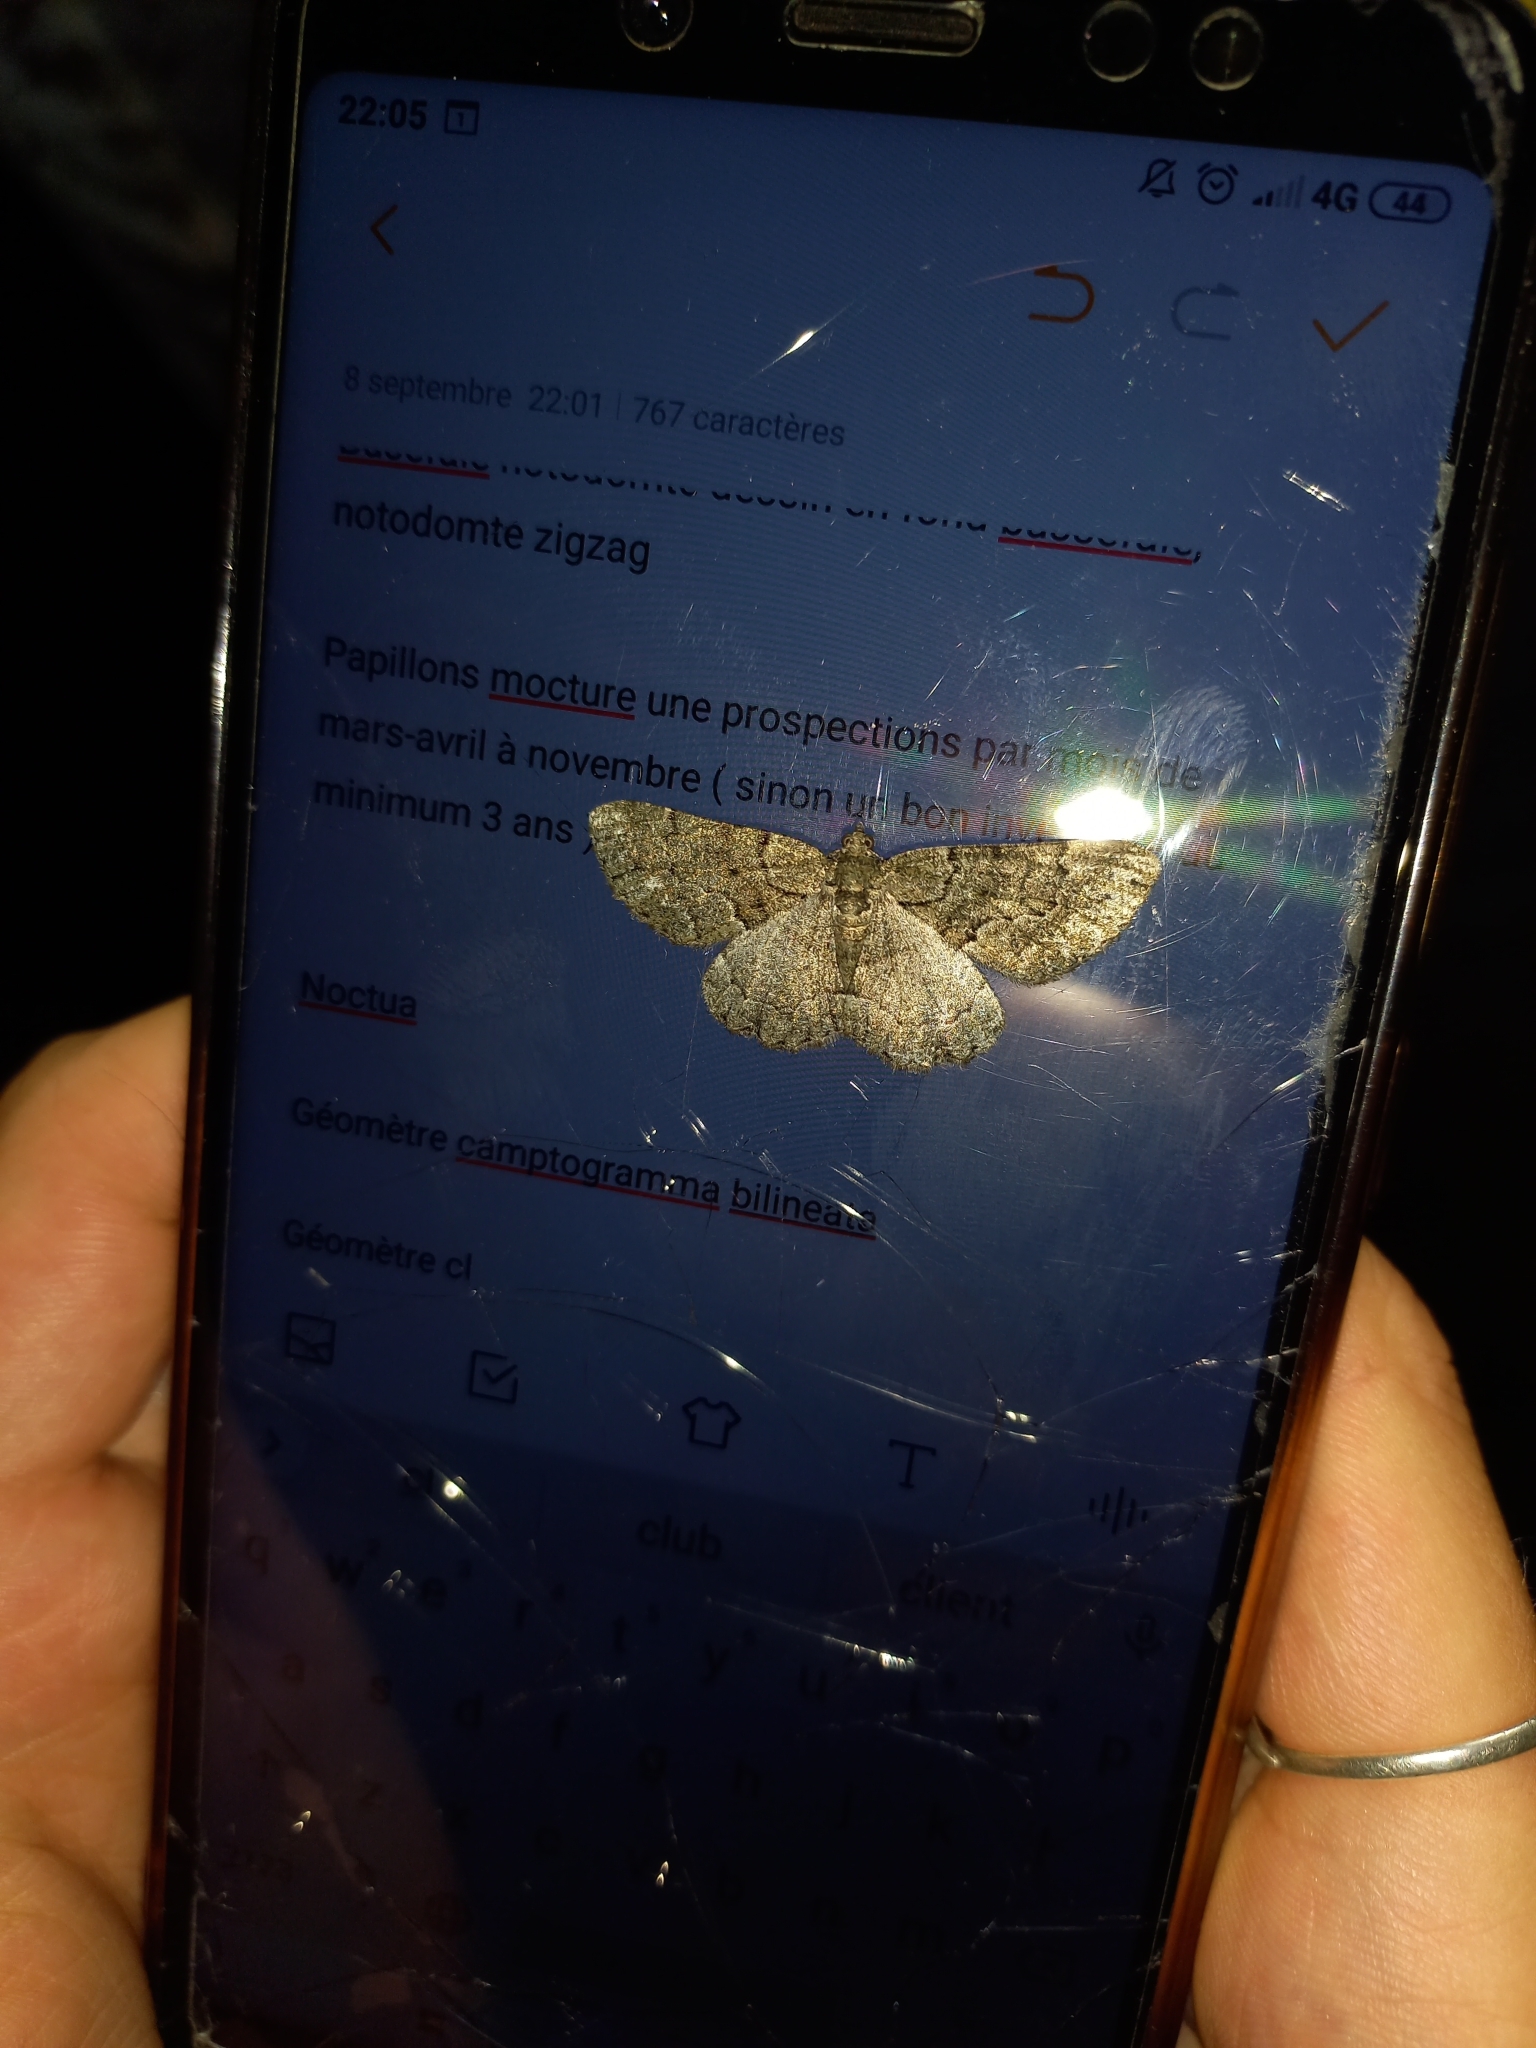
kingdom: Animalia
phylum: Arthropoda
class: Insecta
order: Lepidoptera
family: Geometridae
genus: Peribatodes
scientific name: Peribatodes ilicaria
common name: Lydd beauty
